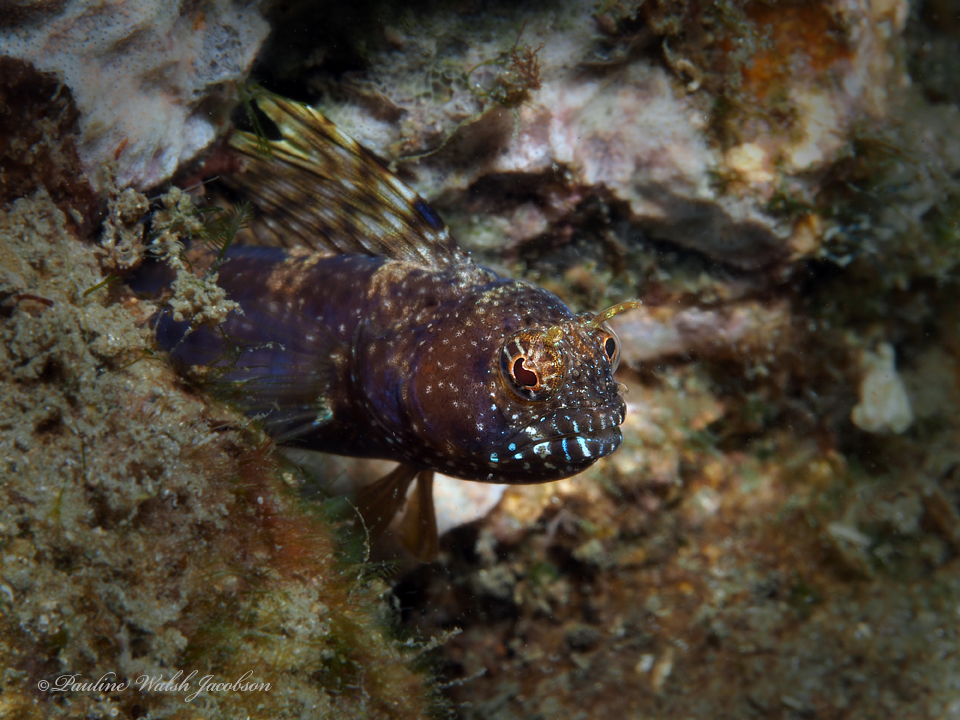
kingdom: Animalia
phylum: Chordata
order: Perciformes
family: Chaenopsidae
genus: Emblemaria
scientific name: Emblemaria pandionis
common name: Sailfin blenny
